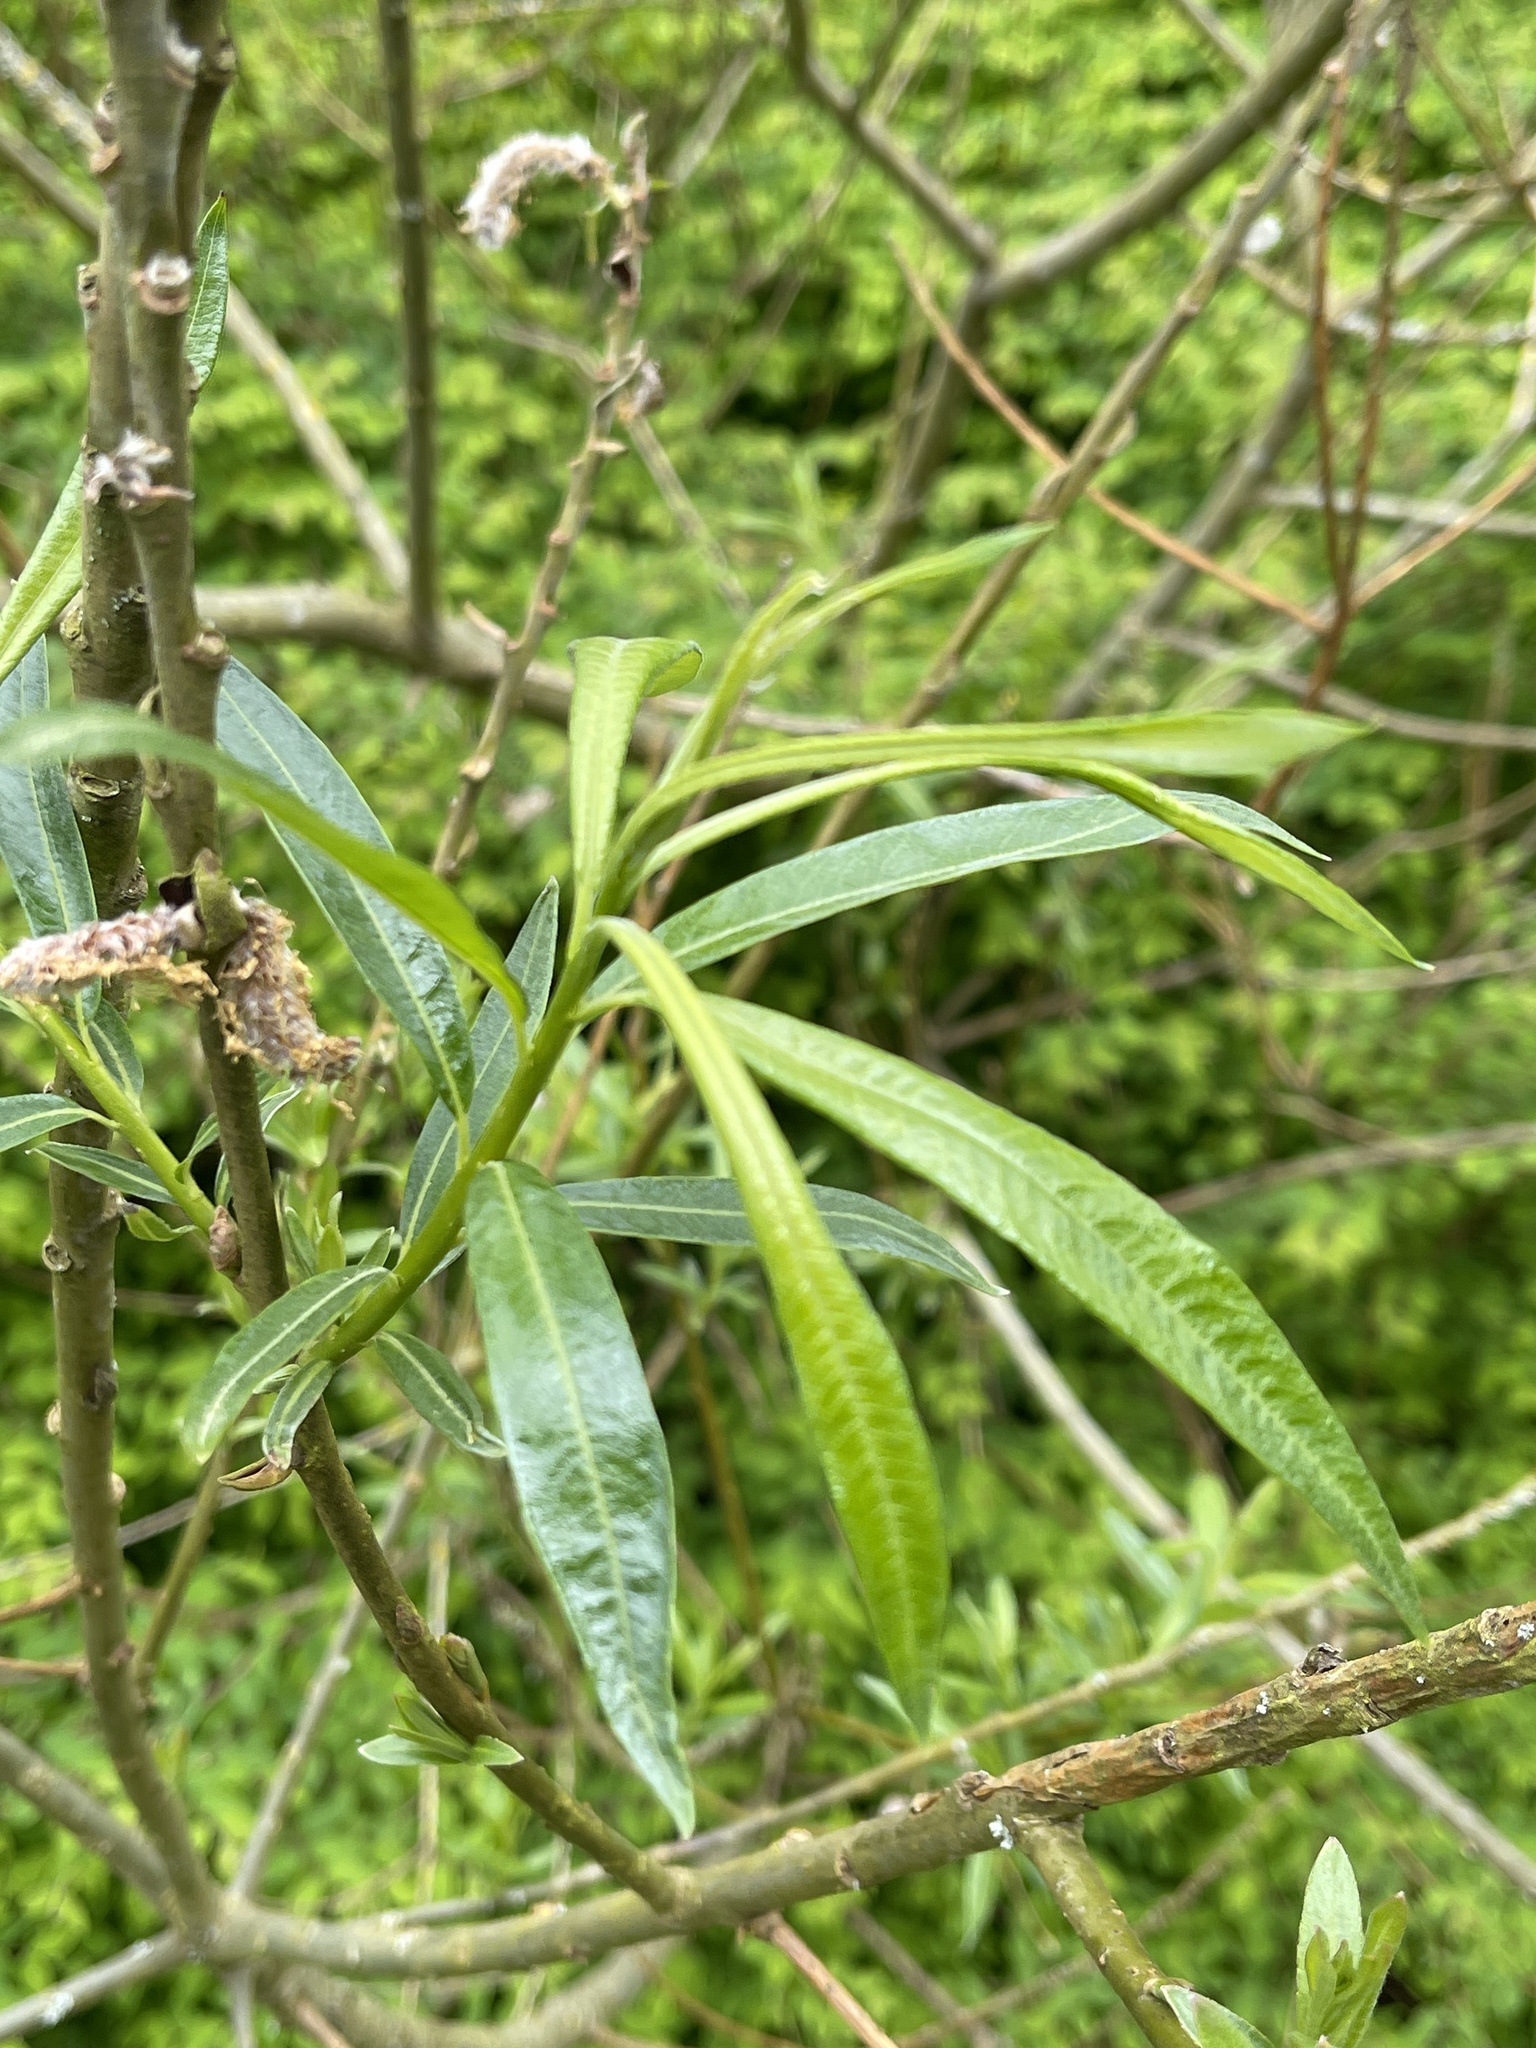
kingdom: Plantae
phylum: Tracheophyta
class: Magnoliopsida
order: Malpighiales
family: Salicaceae
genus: Salix
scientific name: Salix viminalis
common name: Osier
